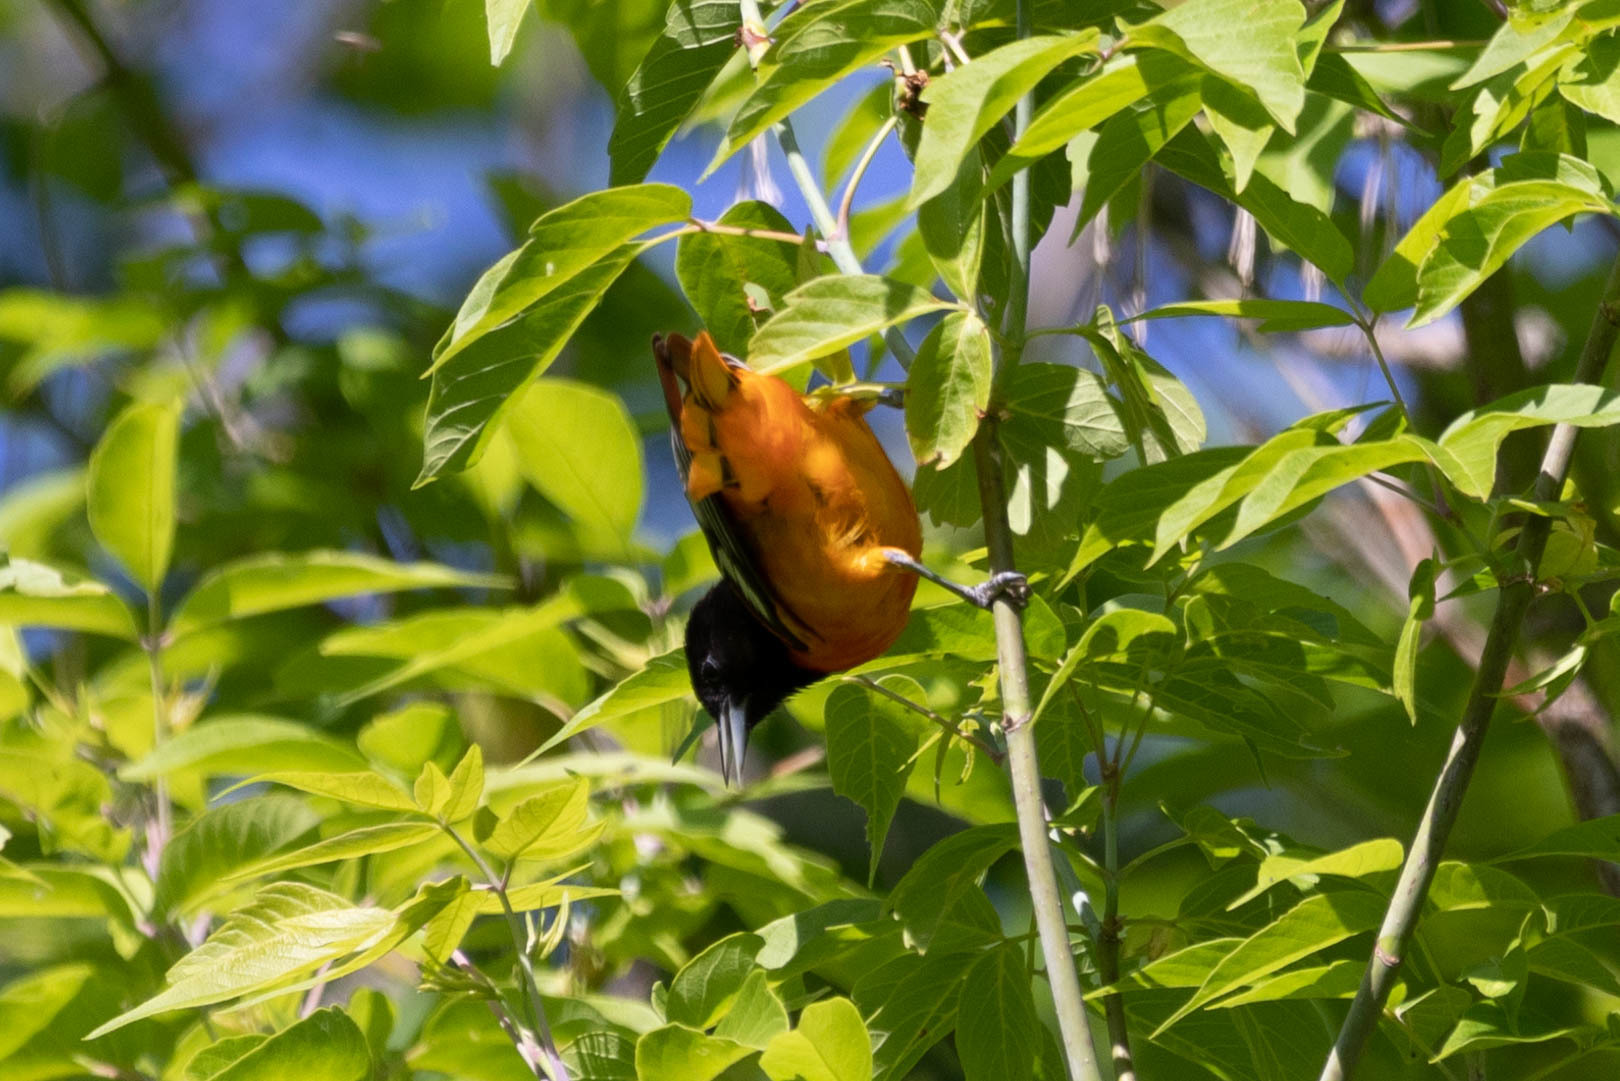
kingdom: Animalia
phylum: Chordata
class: Aves
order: Passeriformes
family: Icteridae
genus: Icterus
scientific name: Icterus galbula
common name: Baltimore oriole
